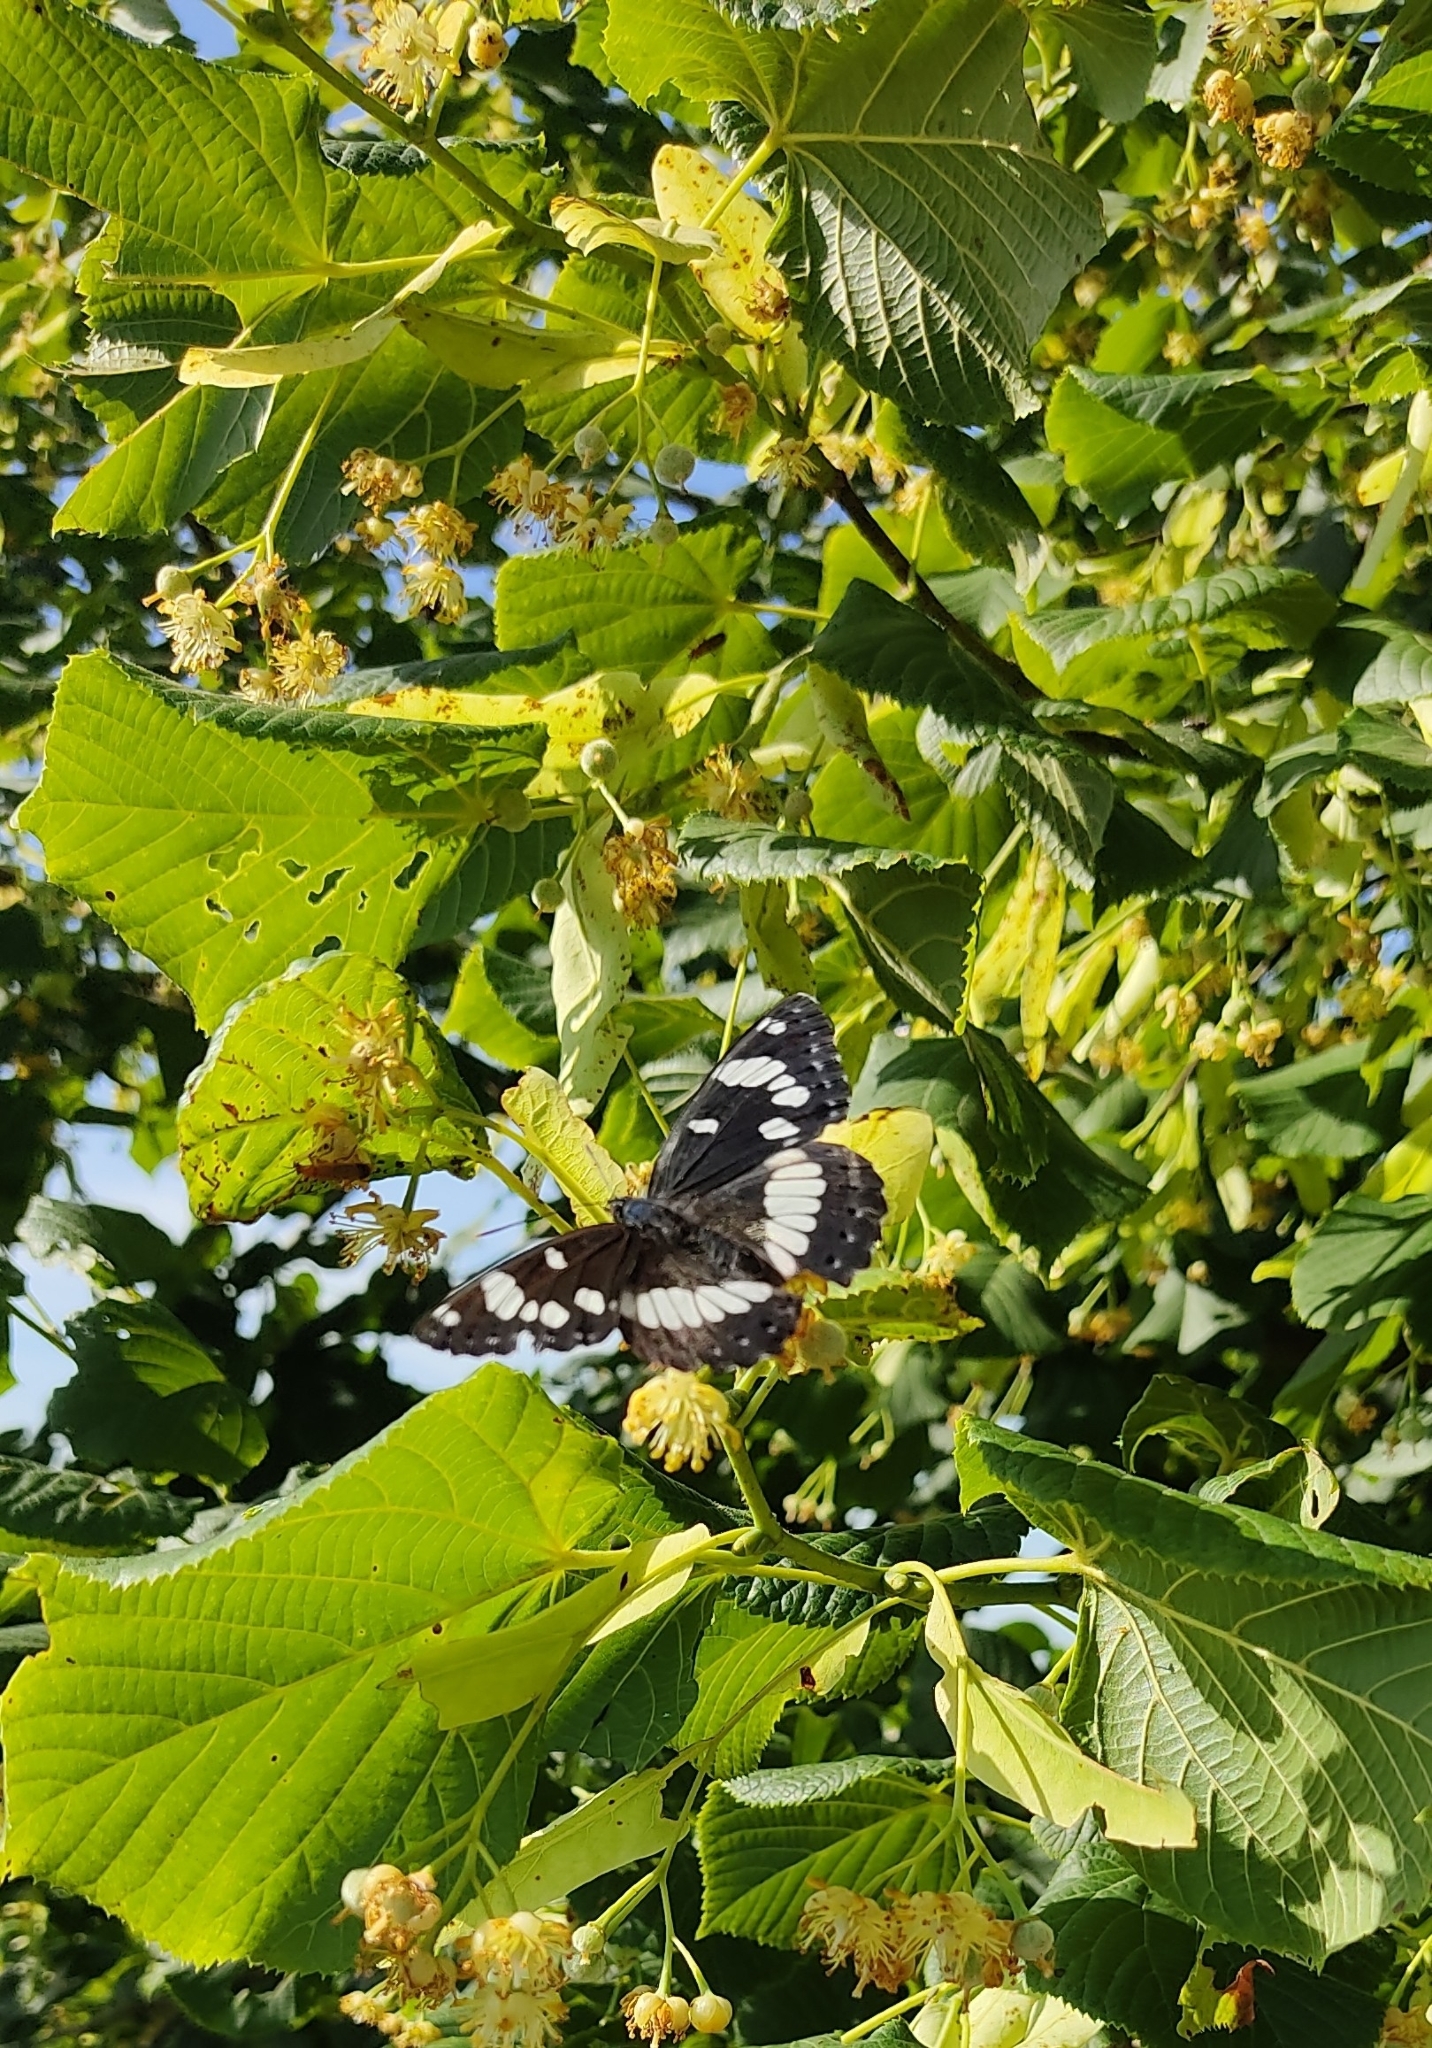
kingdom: Animalia
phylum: Arthropoda
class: Insecta
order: Lepidoptera
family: Nymphalidae
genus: Limenitis
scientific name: Limenitis reducta
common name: Southern white admiral
